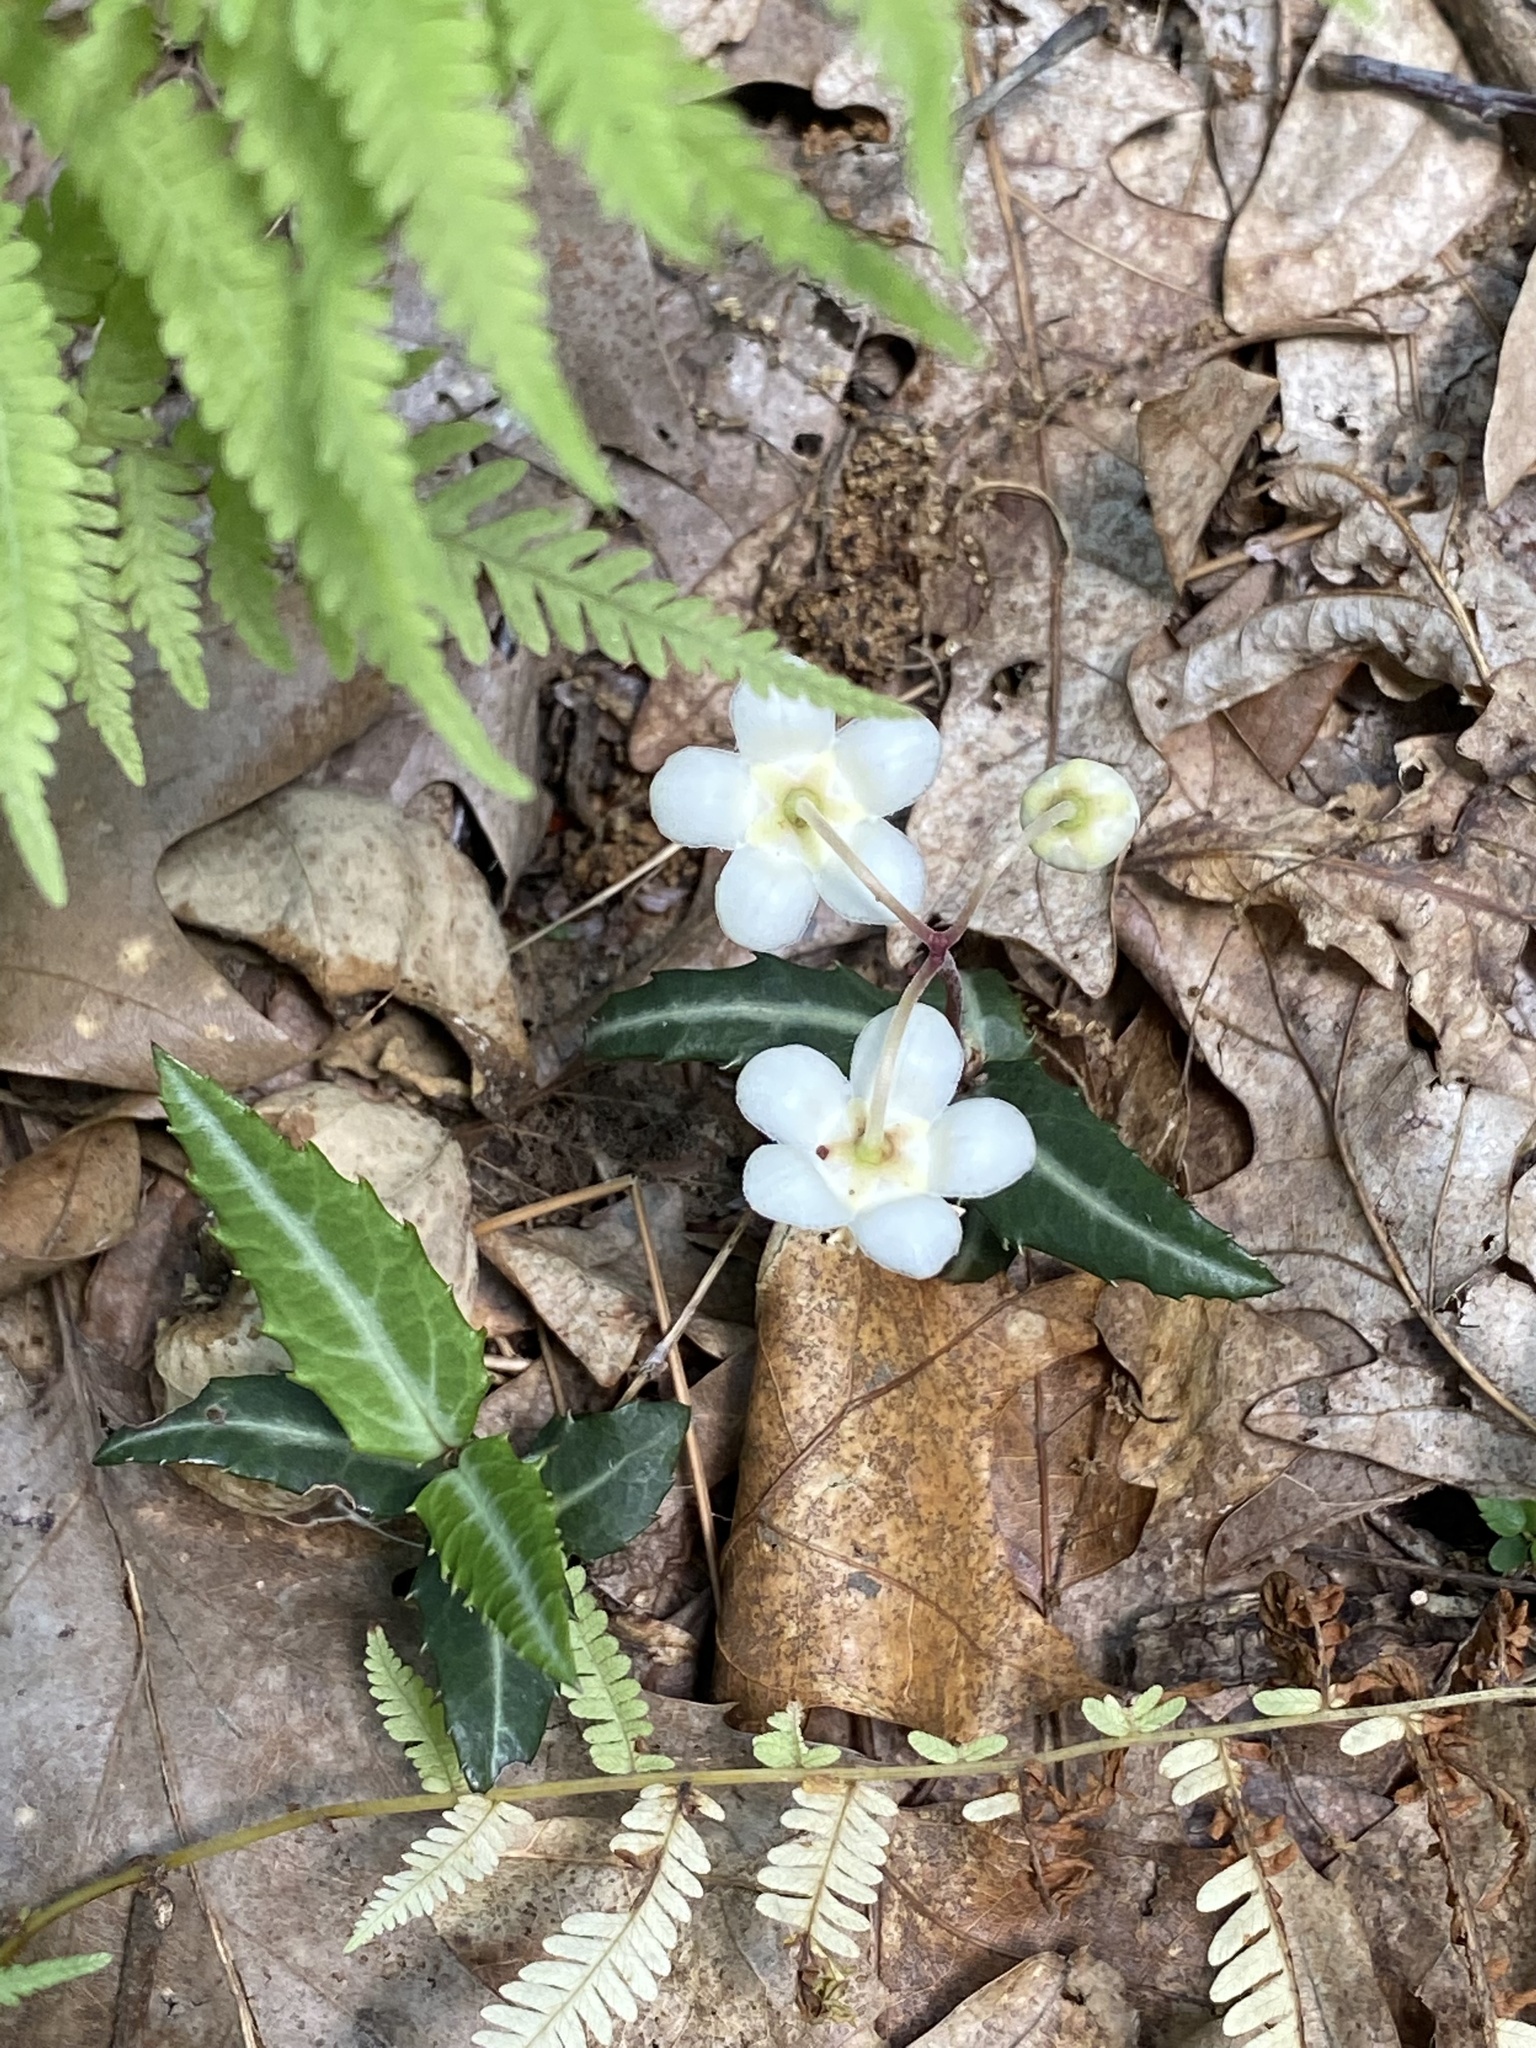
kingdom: Plantae
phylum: Tracheophyta
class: Magnoliopsida
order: Ericales
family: Ericaceae
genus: Chimaphila
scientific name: Chimaphila maculata
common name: Spotted pipsissewa
